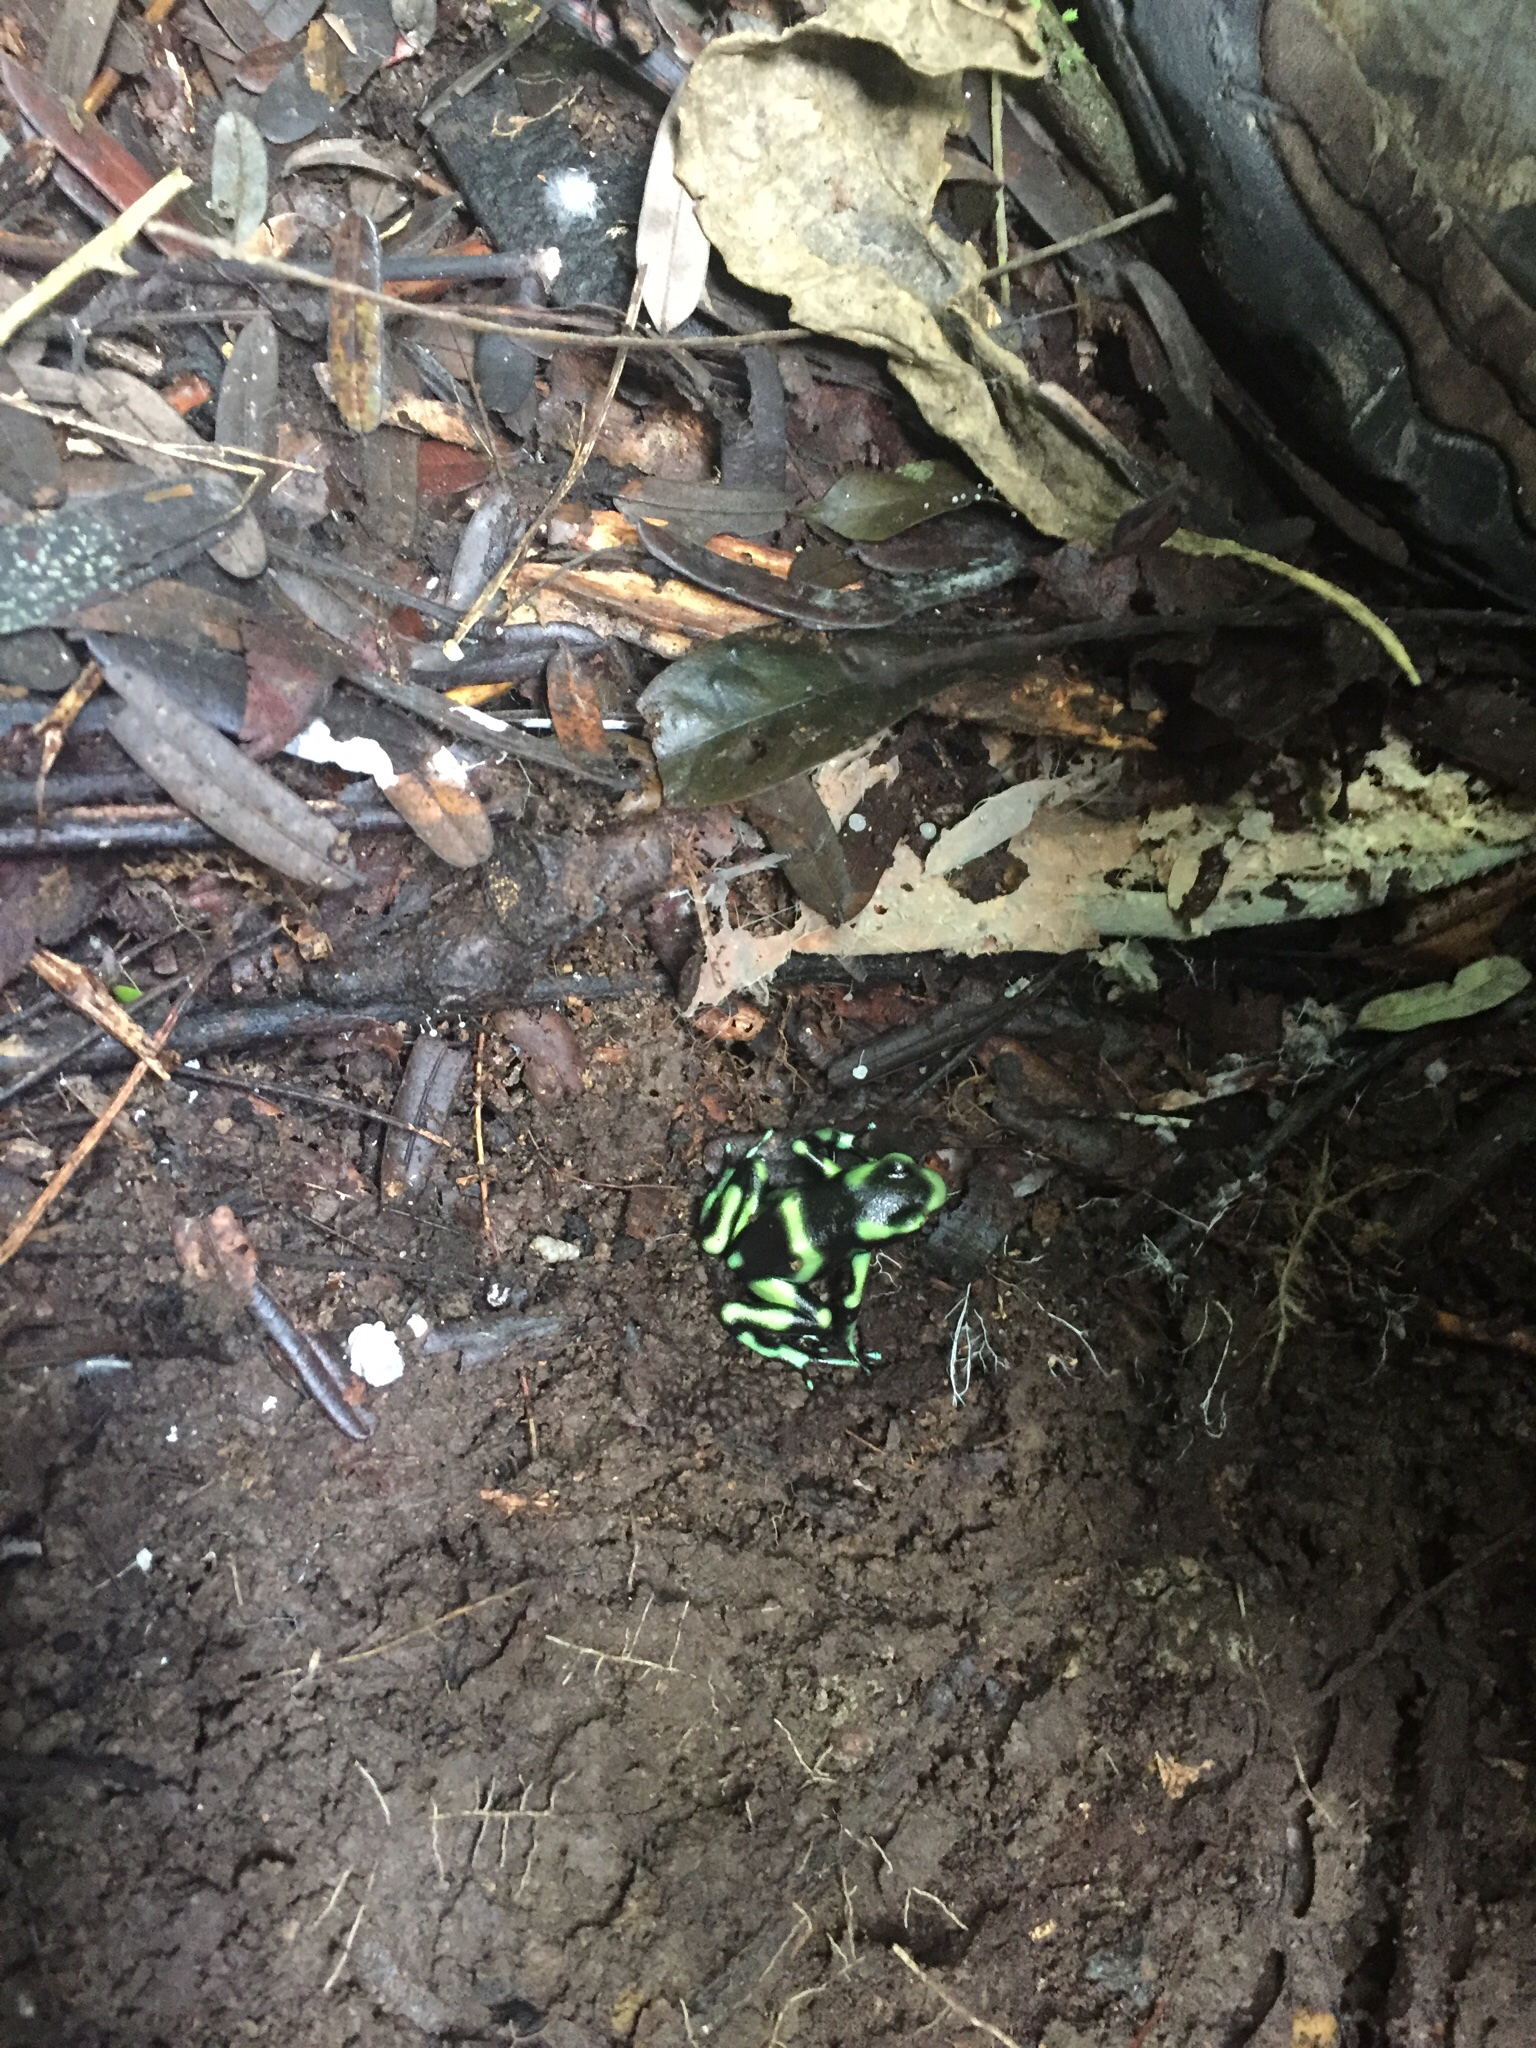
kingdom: Animalia
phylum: Chordata
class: Amphibia
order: Anura
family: Dendrobatidae
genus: Dendrobates
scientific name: Dendrobates auratus
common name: Green and black poison dart frog
